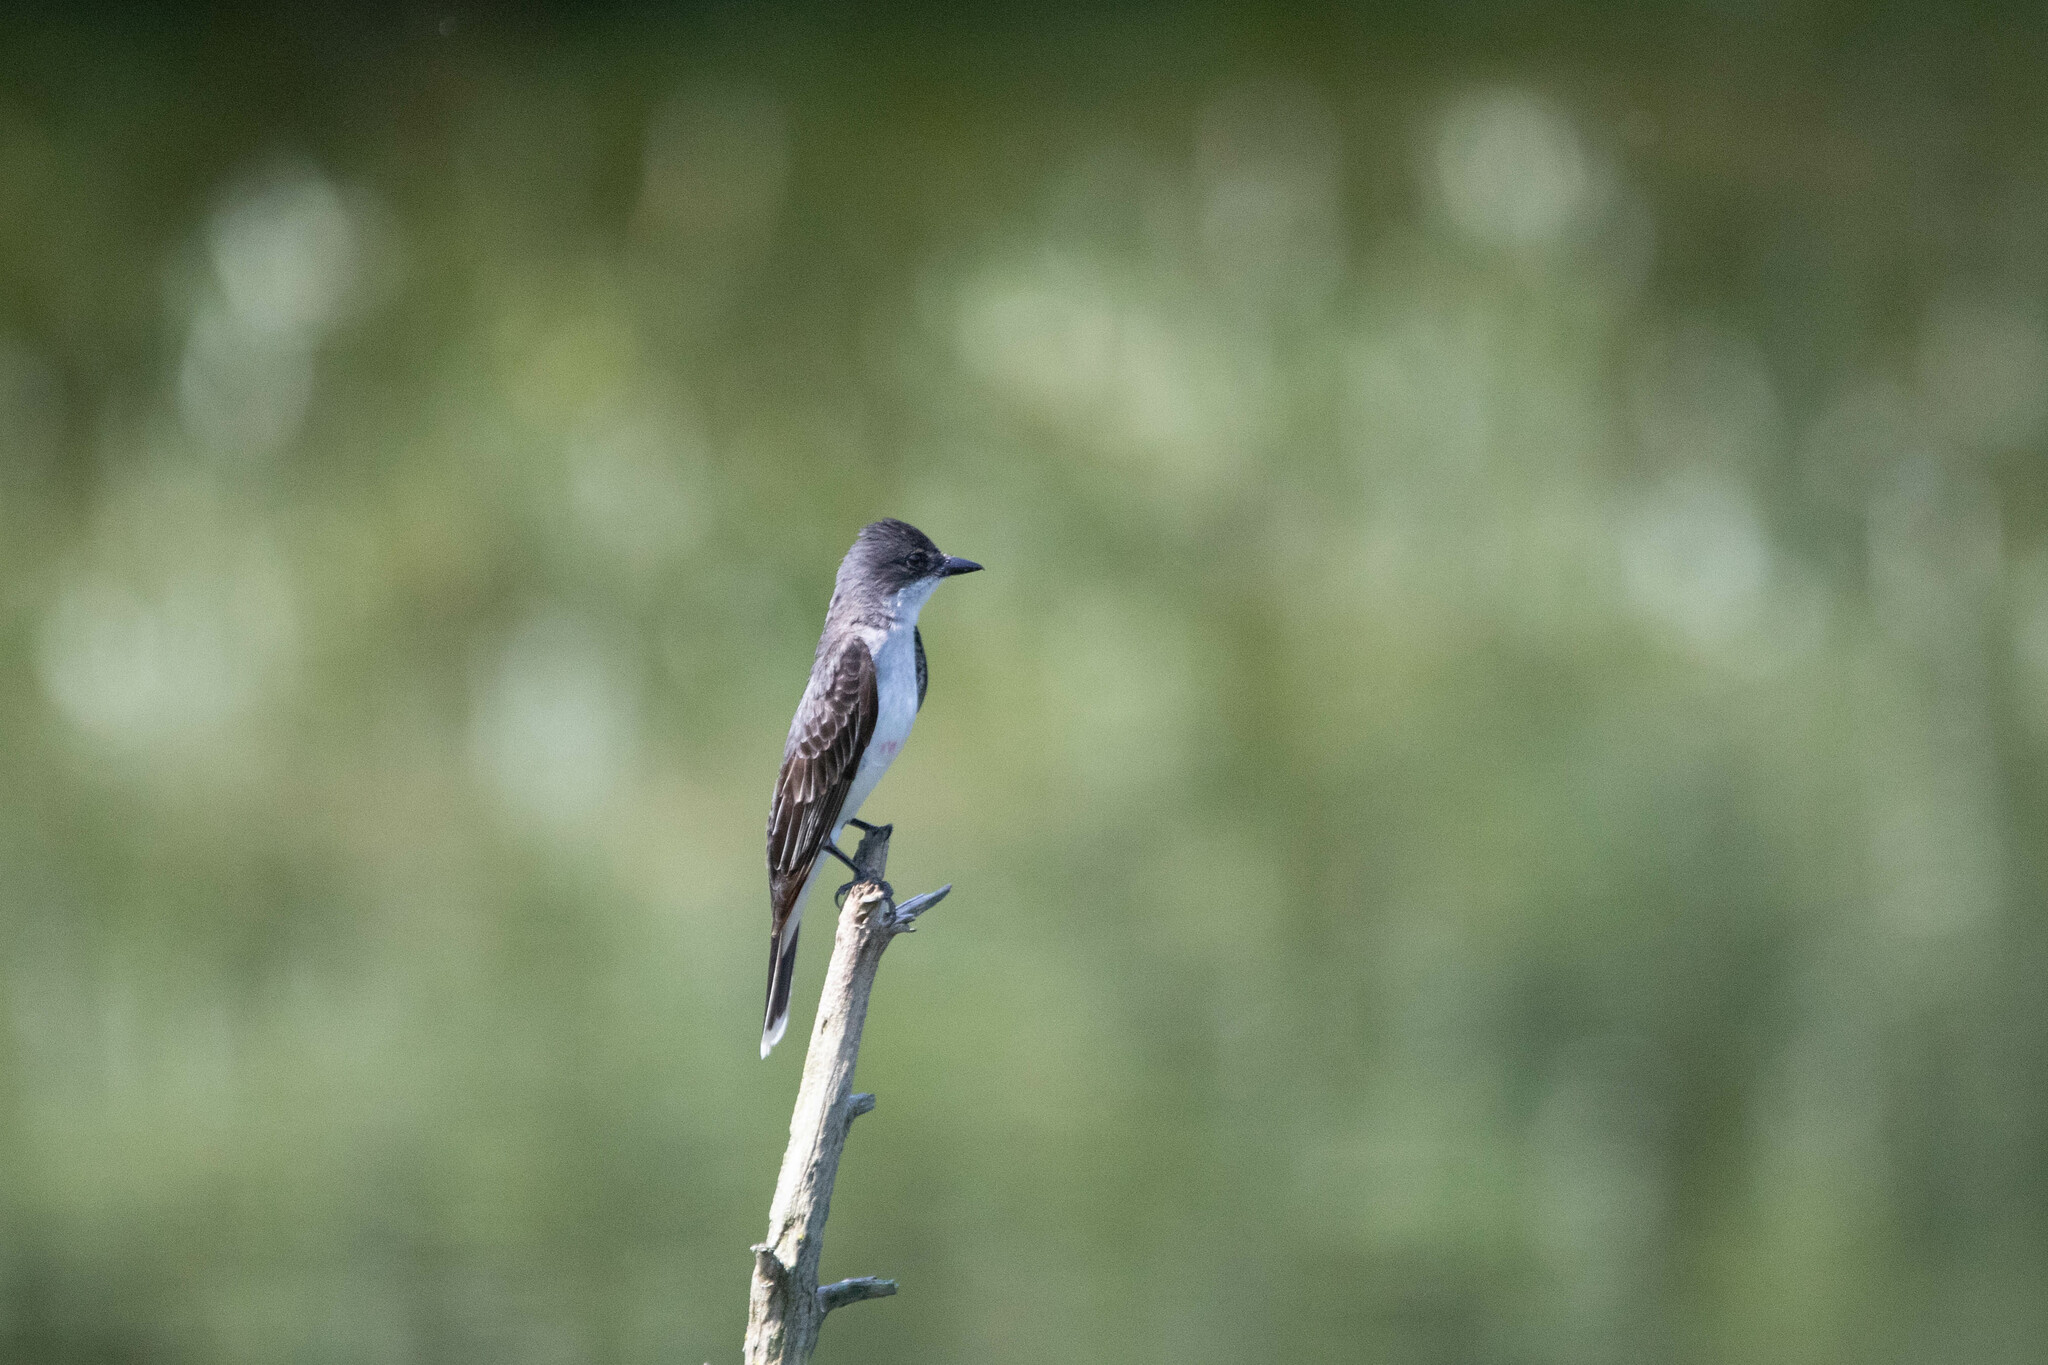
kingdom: Animalia
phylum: Chordata
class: Aves
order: Passeriformes
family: Tyrannidae
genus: Tyrannus
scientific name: Tyrannus tyrannus
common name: Eastern kingbird
